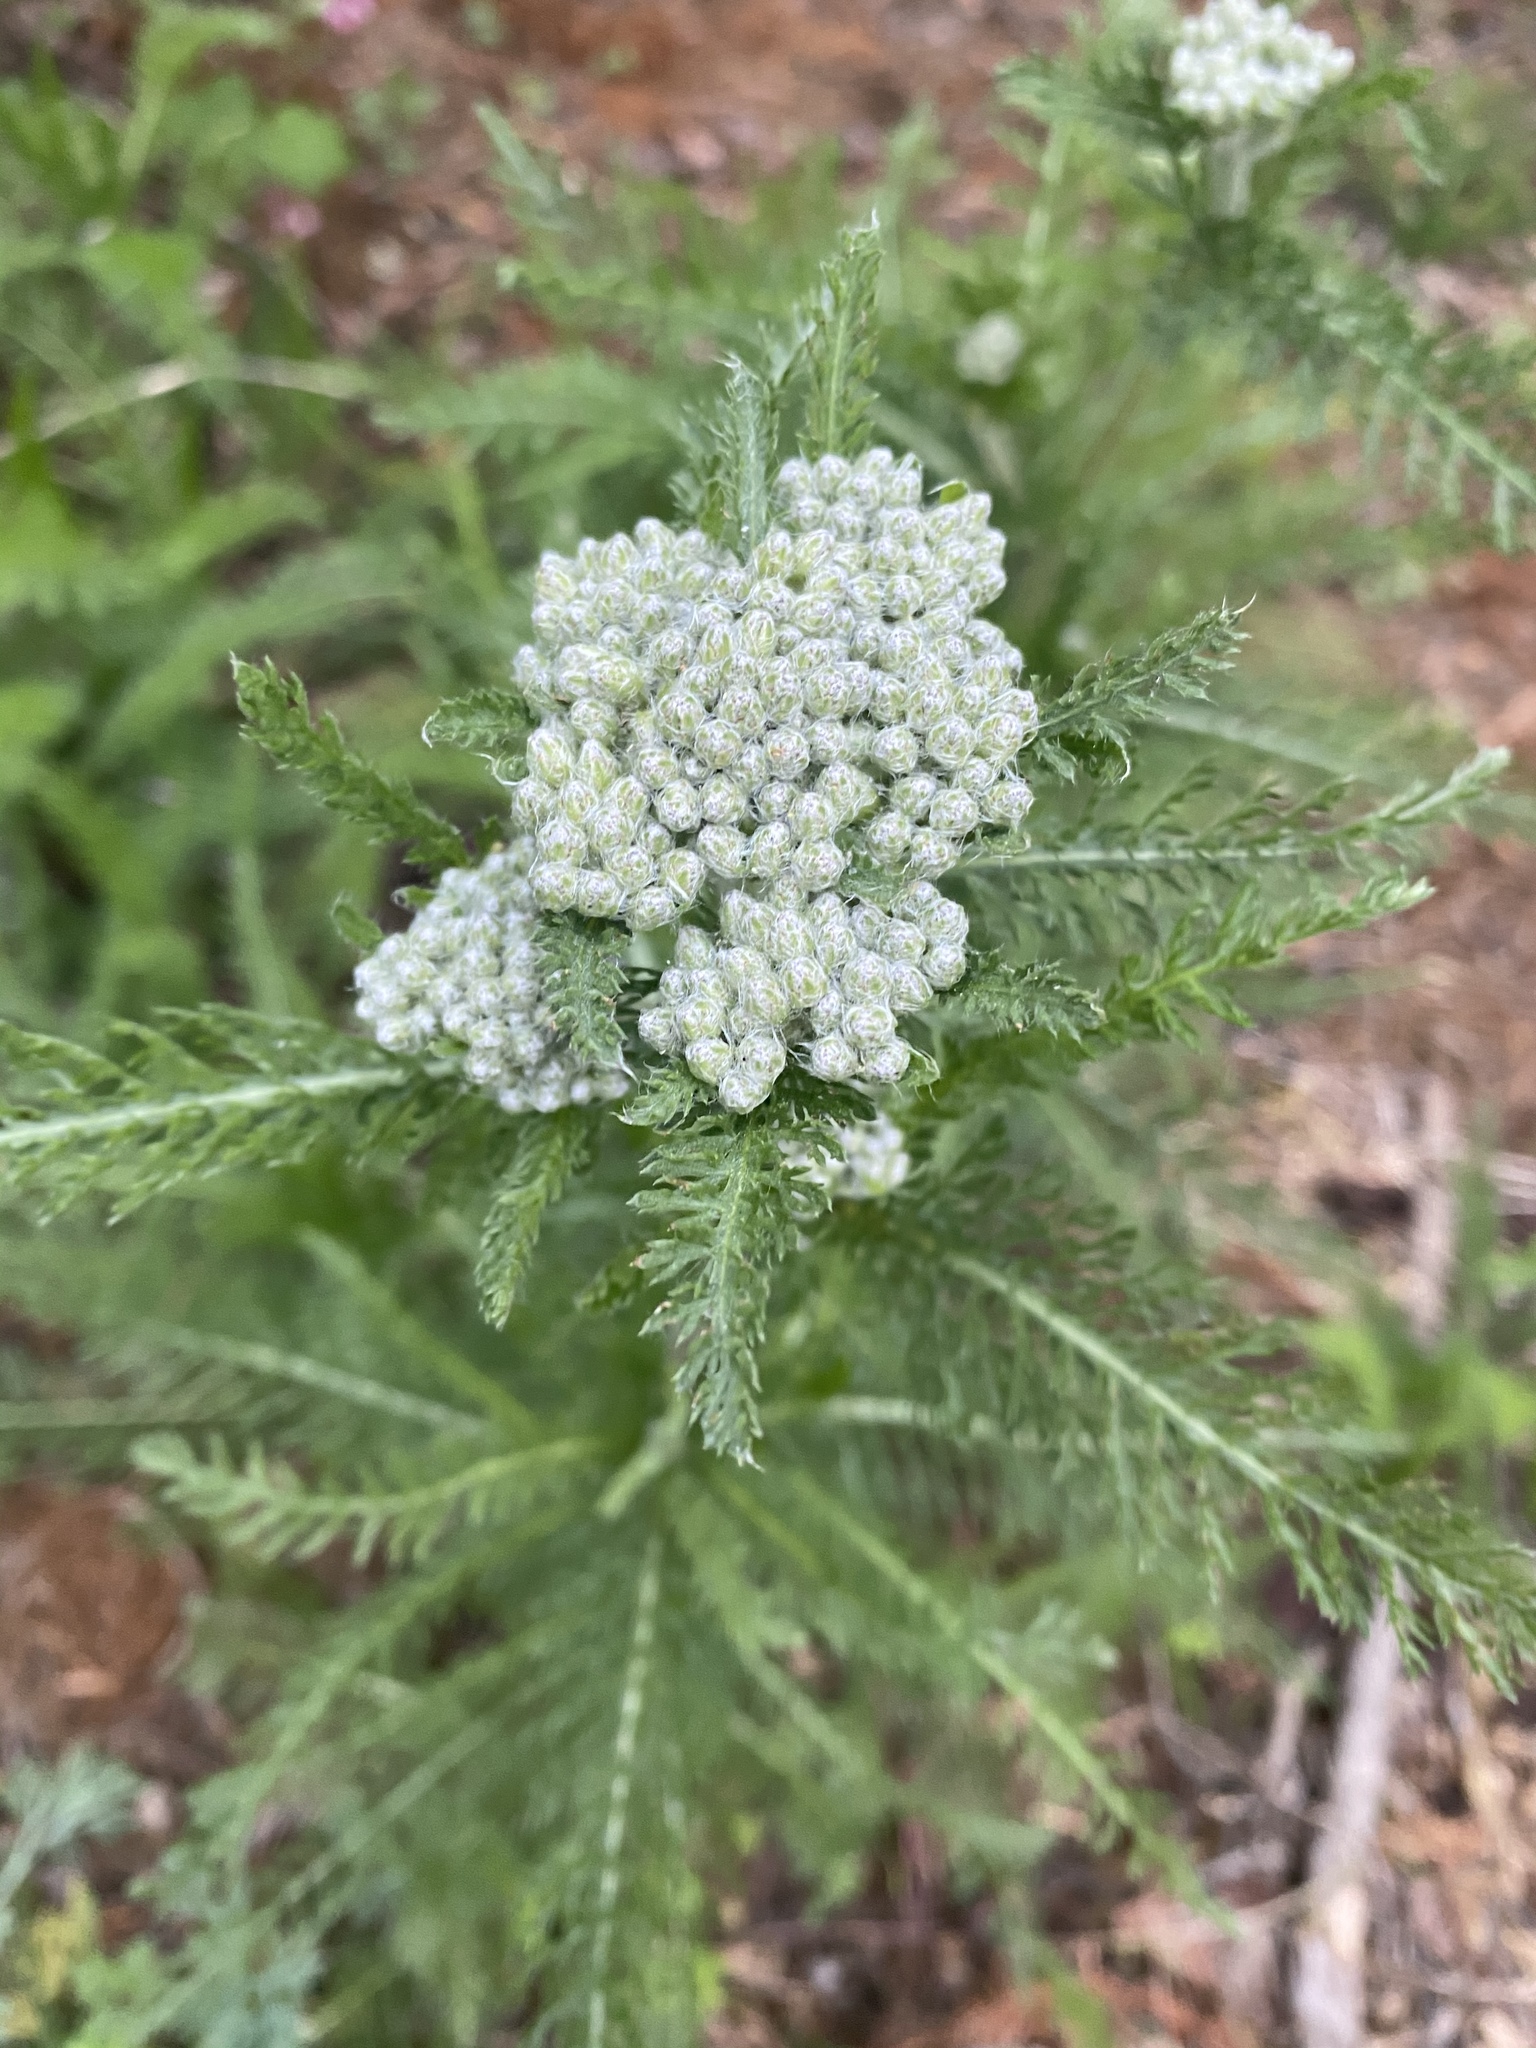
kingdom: Plantae
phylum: Tracheophyta
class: Magnoliopsida
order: Asterales
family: Asteraceae
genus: Achillea
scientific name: Achillea millefolium
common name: Yarrow
